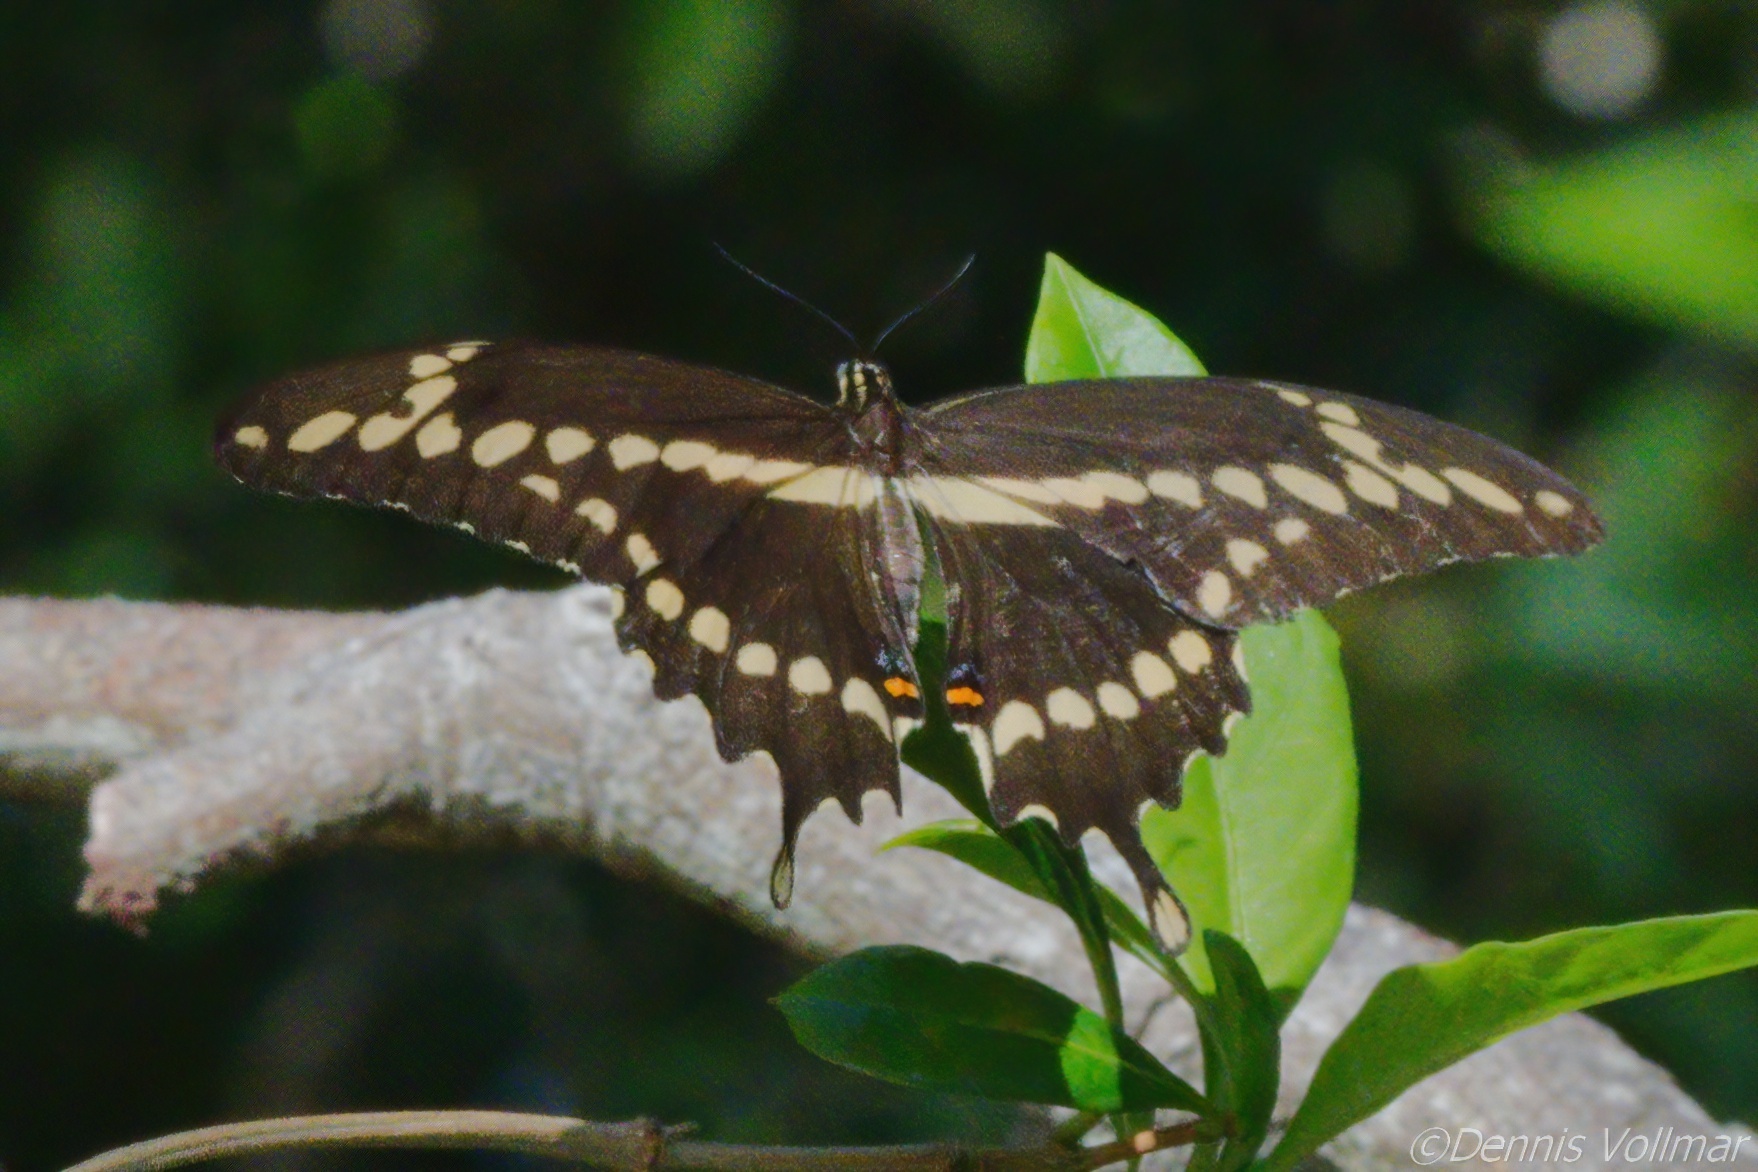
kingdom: Animalia
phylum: Arthropoda
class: Insecta
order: Lepidoptera
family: Papilionidae
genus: Papilio
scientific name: Papilio cresphontes
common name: Giant swallowtail
